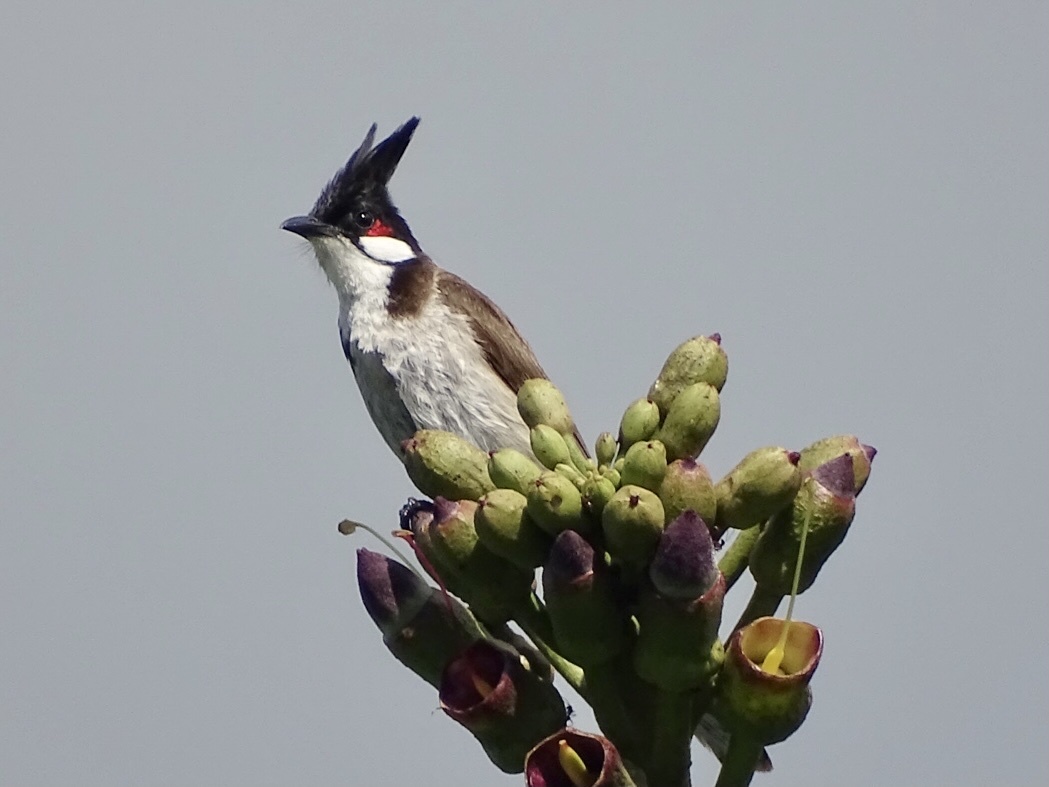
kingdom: Animalia
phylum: Chordata
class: Aves
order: Passeriformes
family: Pycnonotidae
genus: Pycnonotus
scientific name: Pycnonotus jocosus
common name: Red-whiskered bulbul
